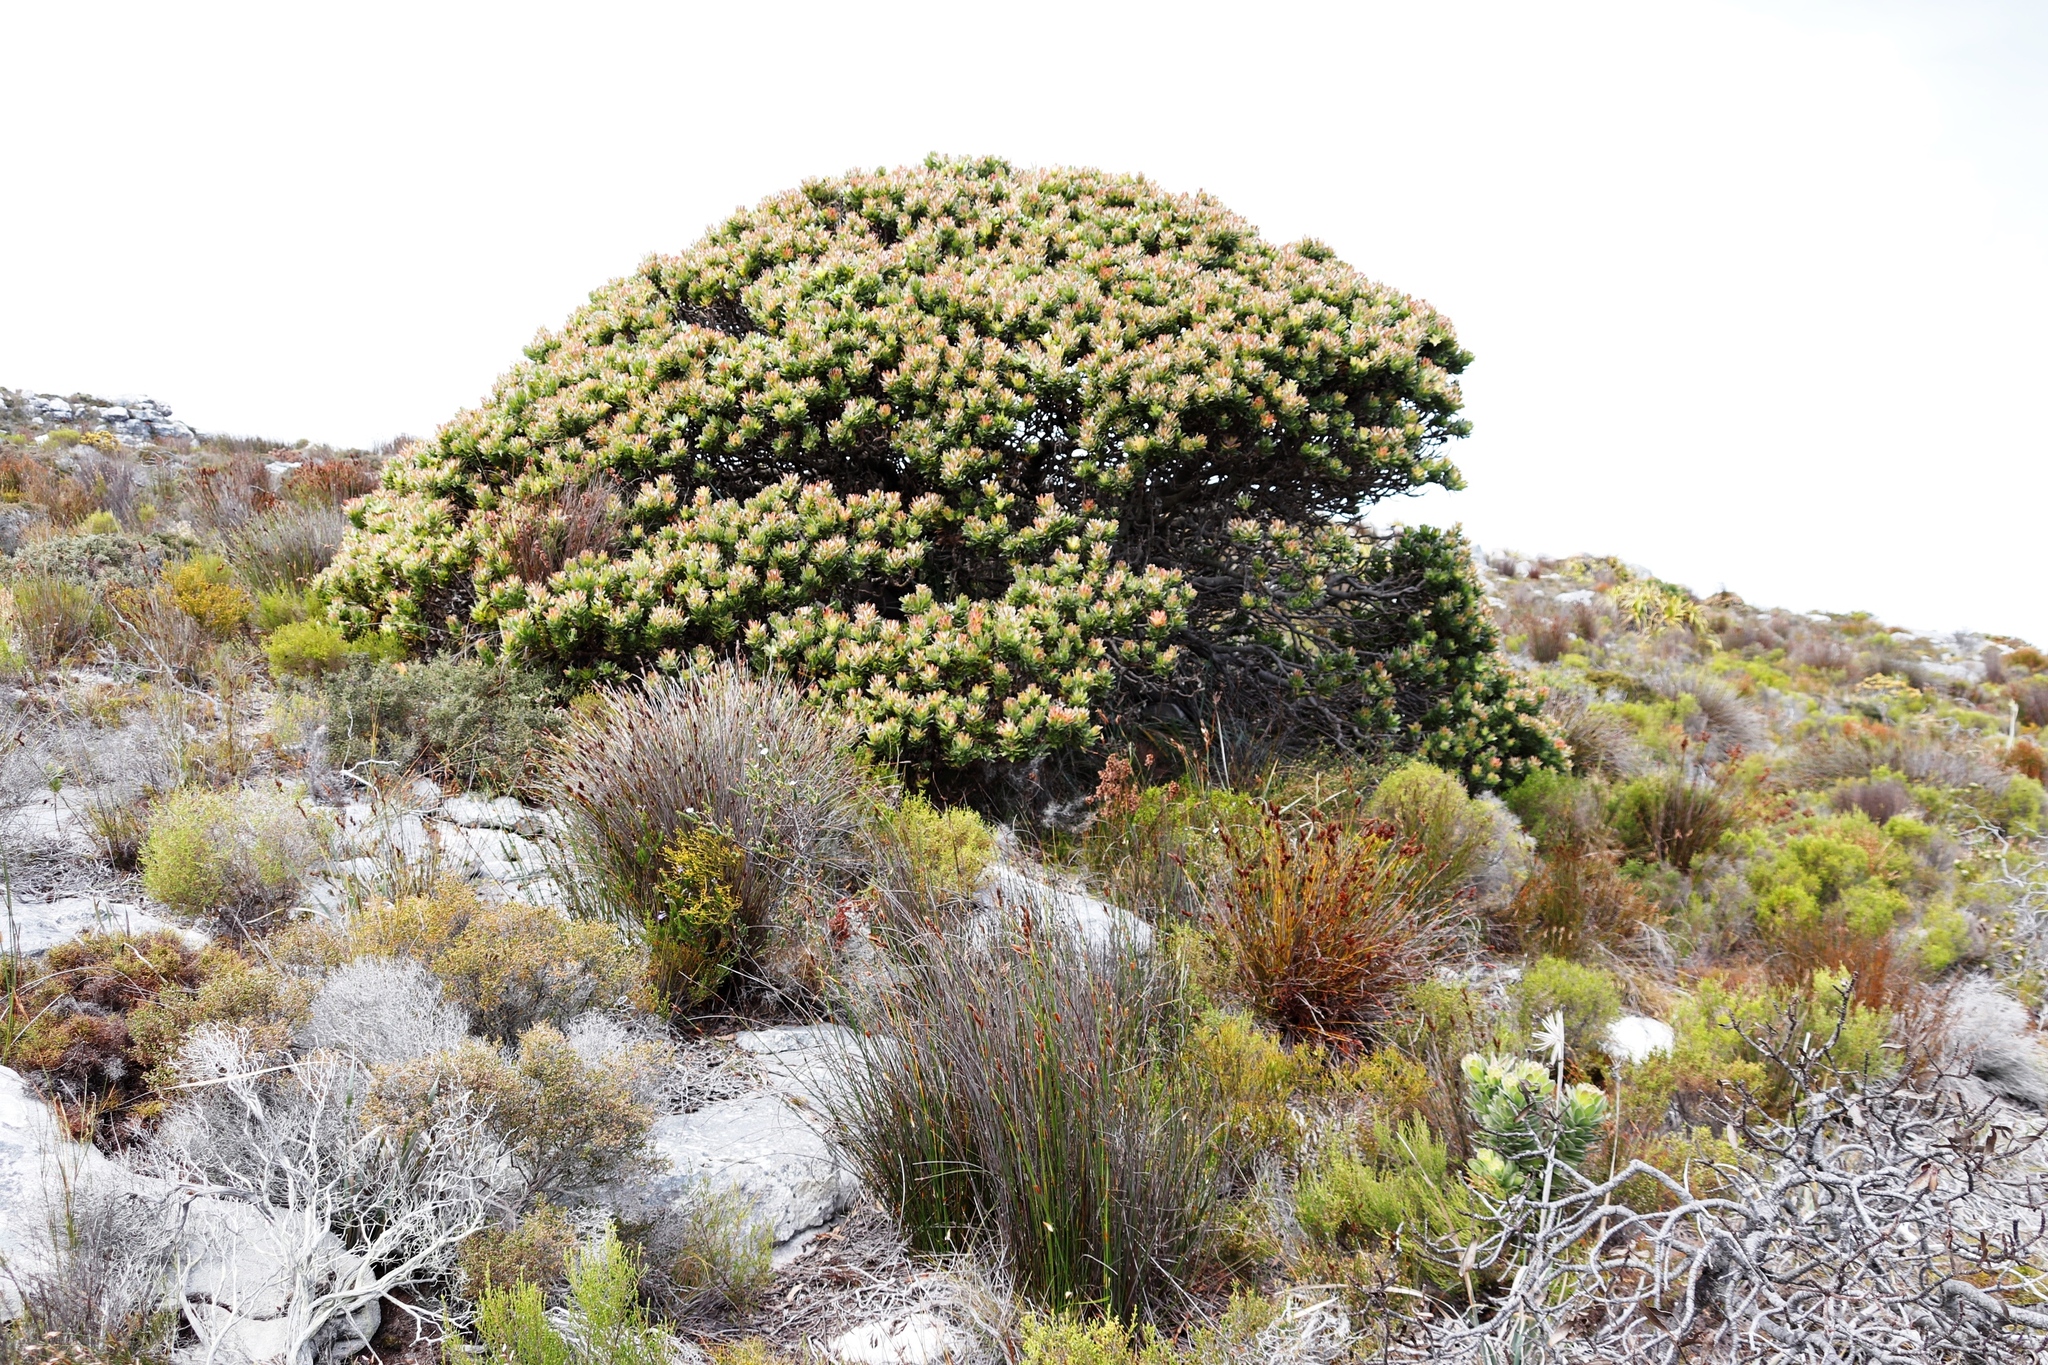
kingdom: Plantae
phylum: Tracheophyta
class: Magnoliopsida
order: Proteales
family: Proteaceae
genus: Mimetes
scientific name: Mimetes fimbriifolius
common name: Fringed bottlebrush
